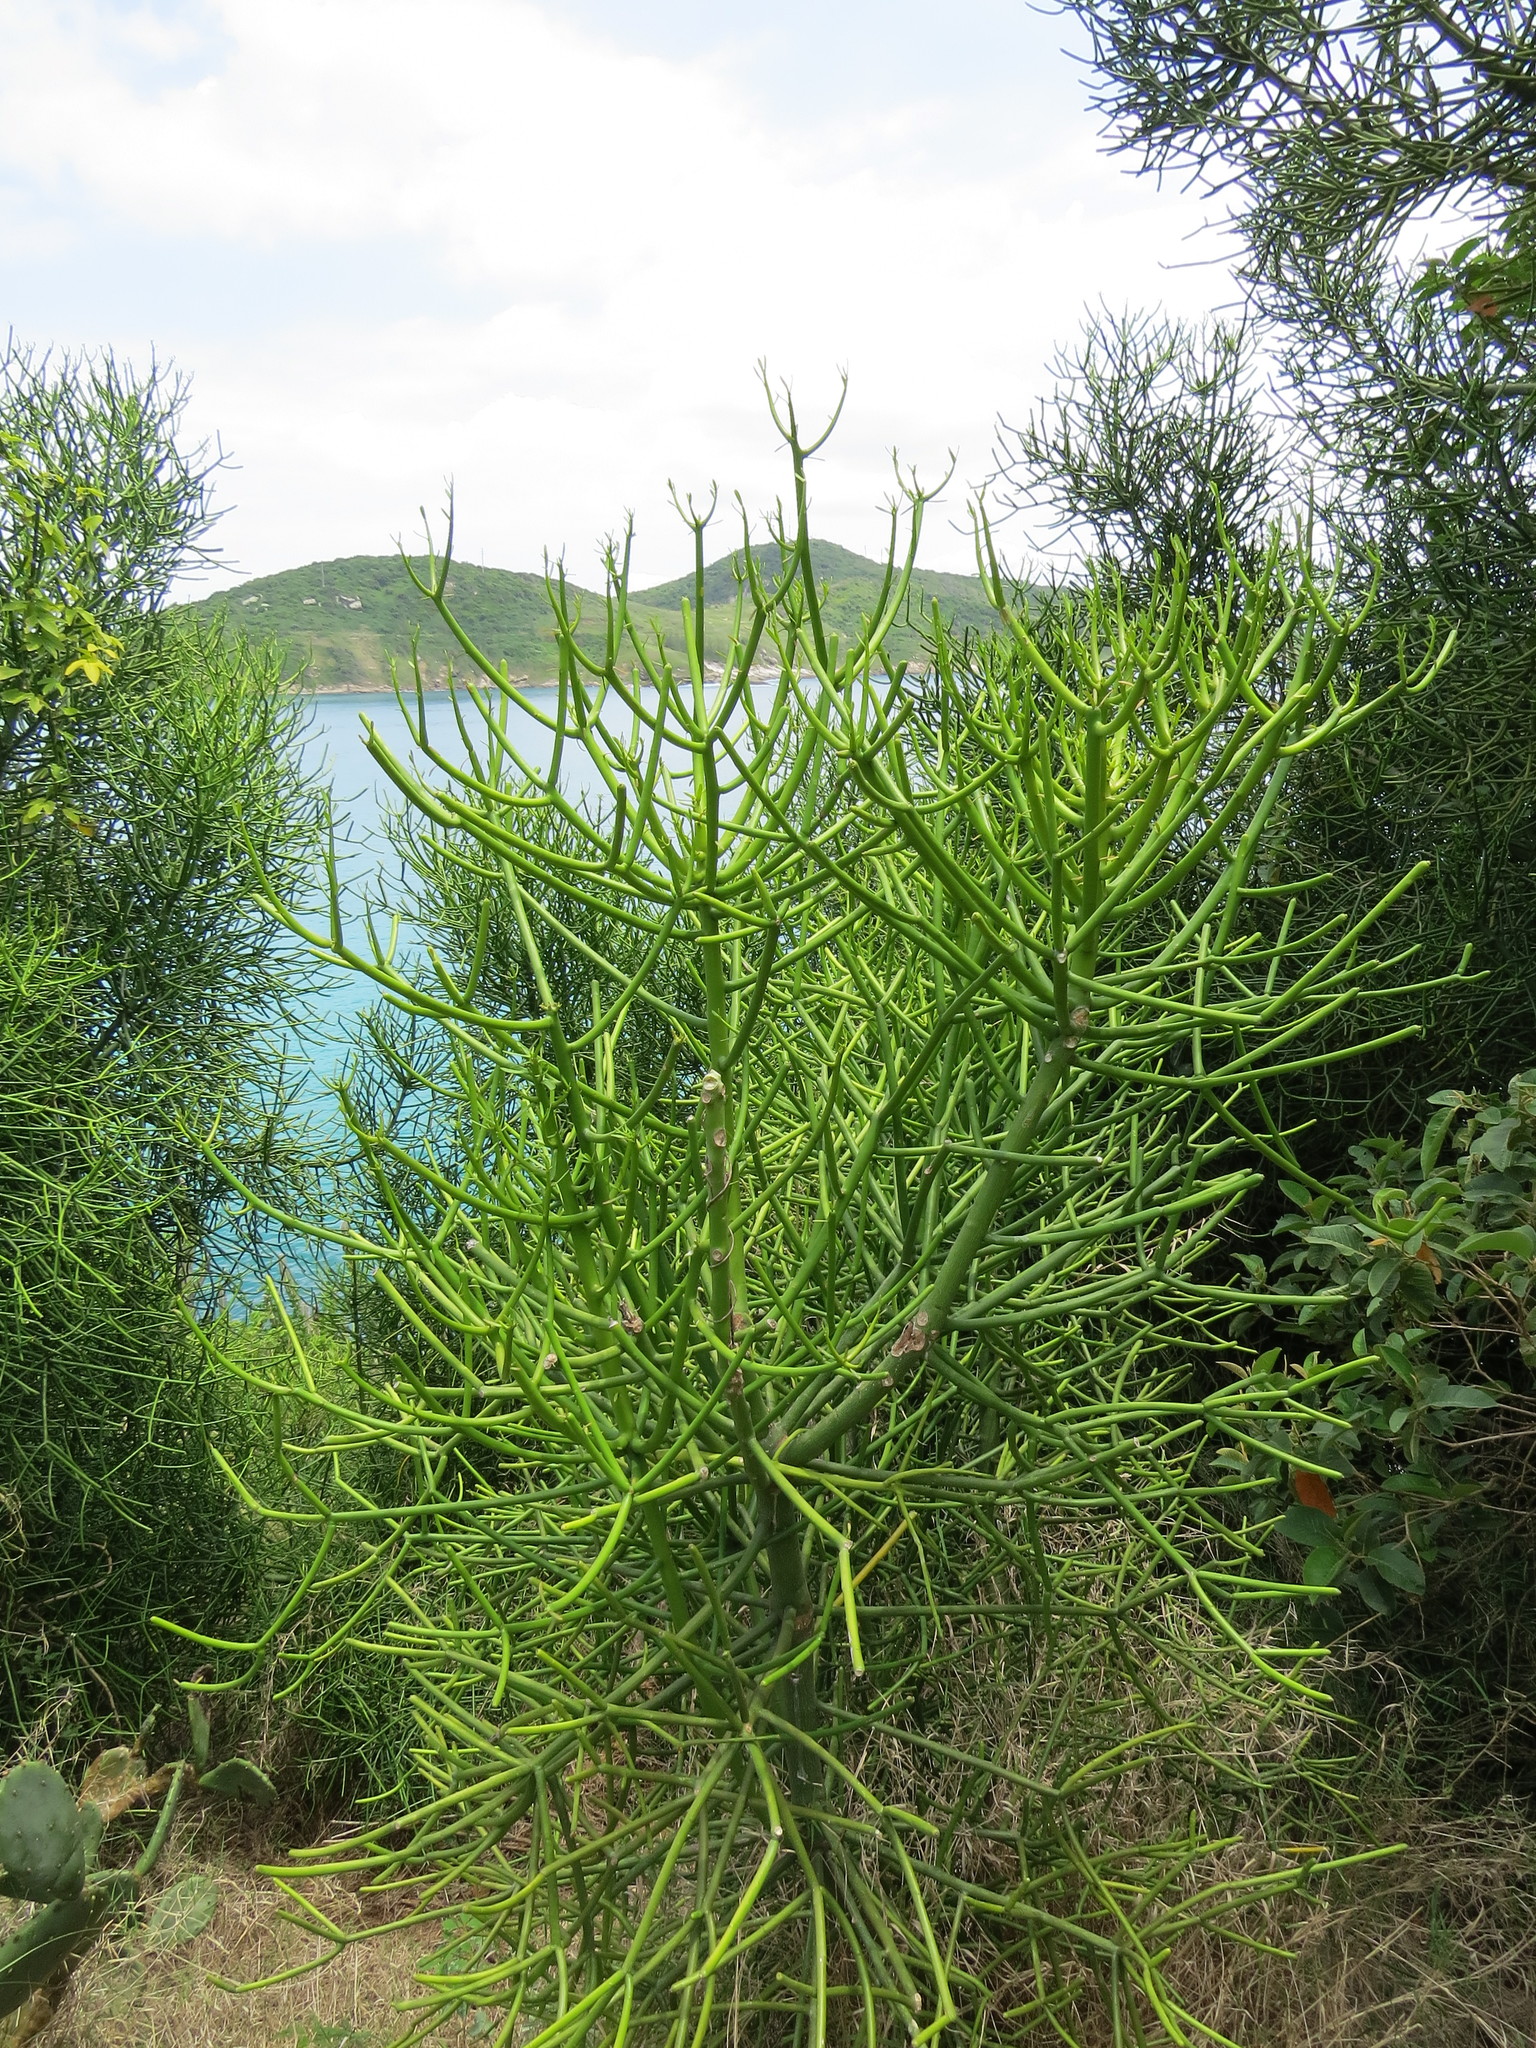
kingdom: Plantae
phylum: Tracheophyta
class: Magnoliopsida
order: Malpighiales
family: Euphorbiaceae
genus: Euphorbia
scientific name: Euphorbia tirucalli
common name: Indiantree spurge
